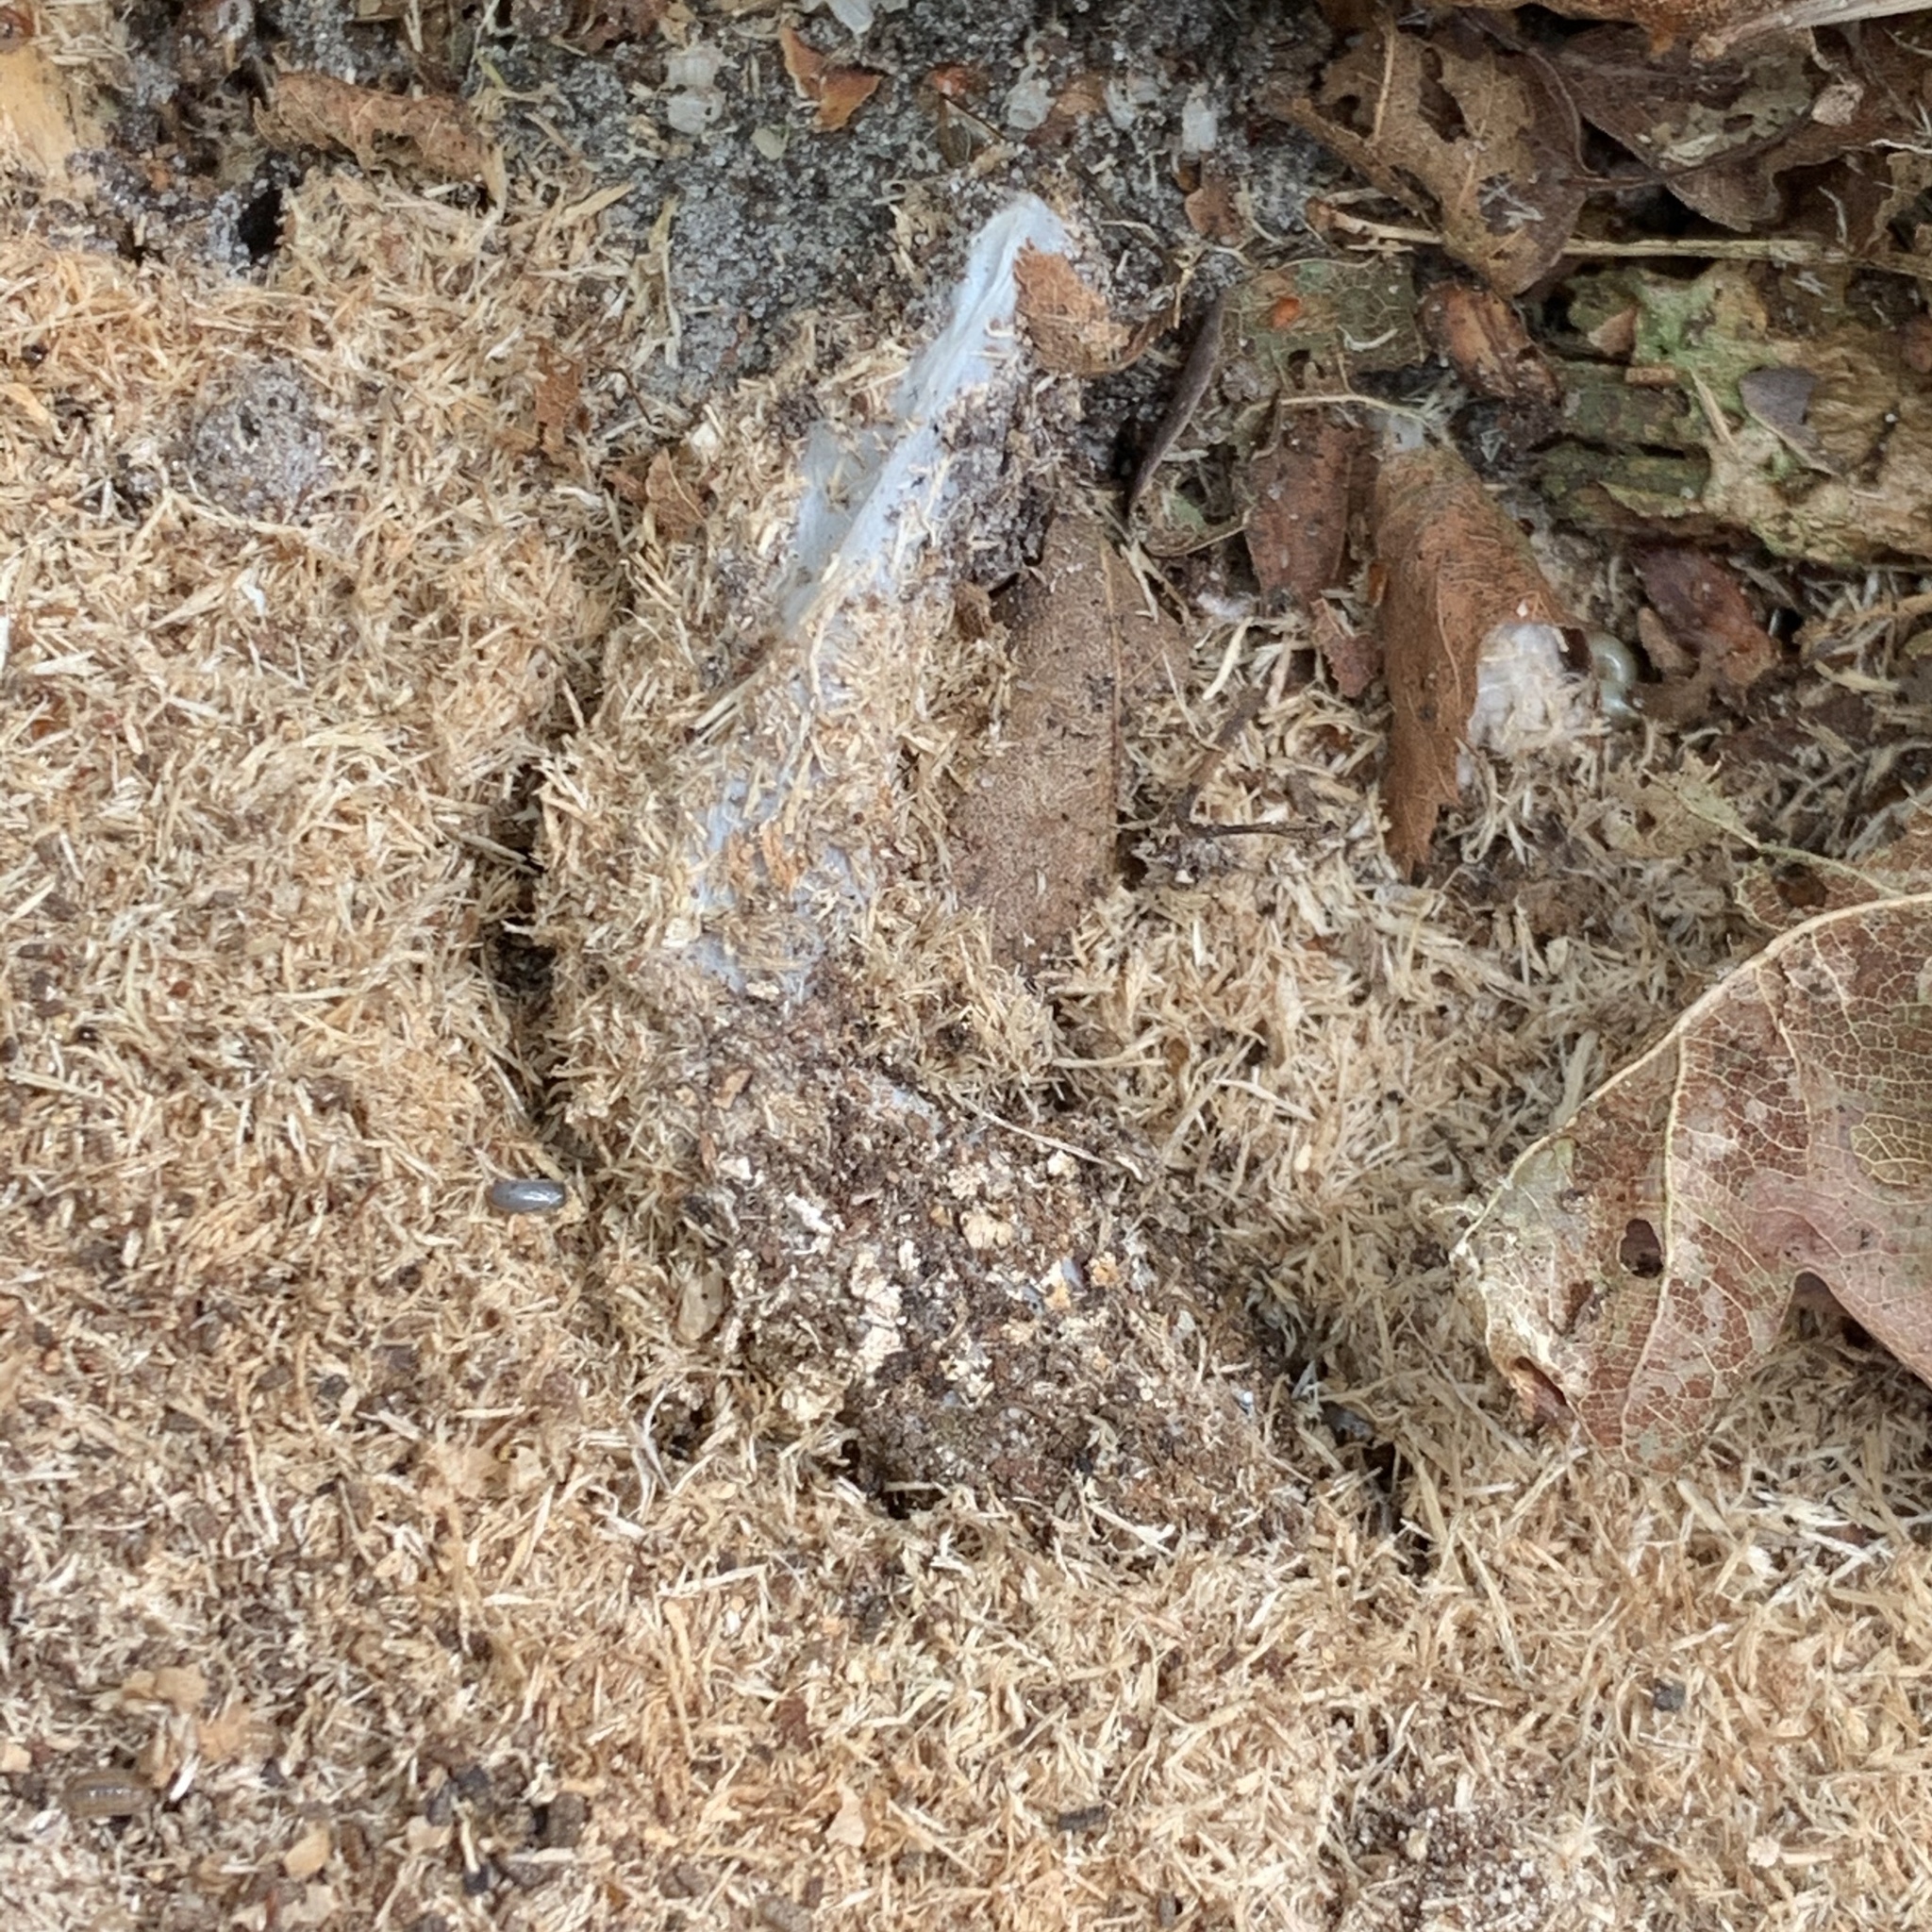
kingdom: Animalia
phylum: Arthropoda
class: Arachnida
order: Araneae
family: Atypidae
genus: Atypus
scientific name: Atypus affinis
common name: Purse web spider
